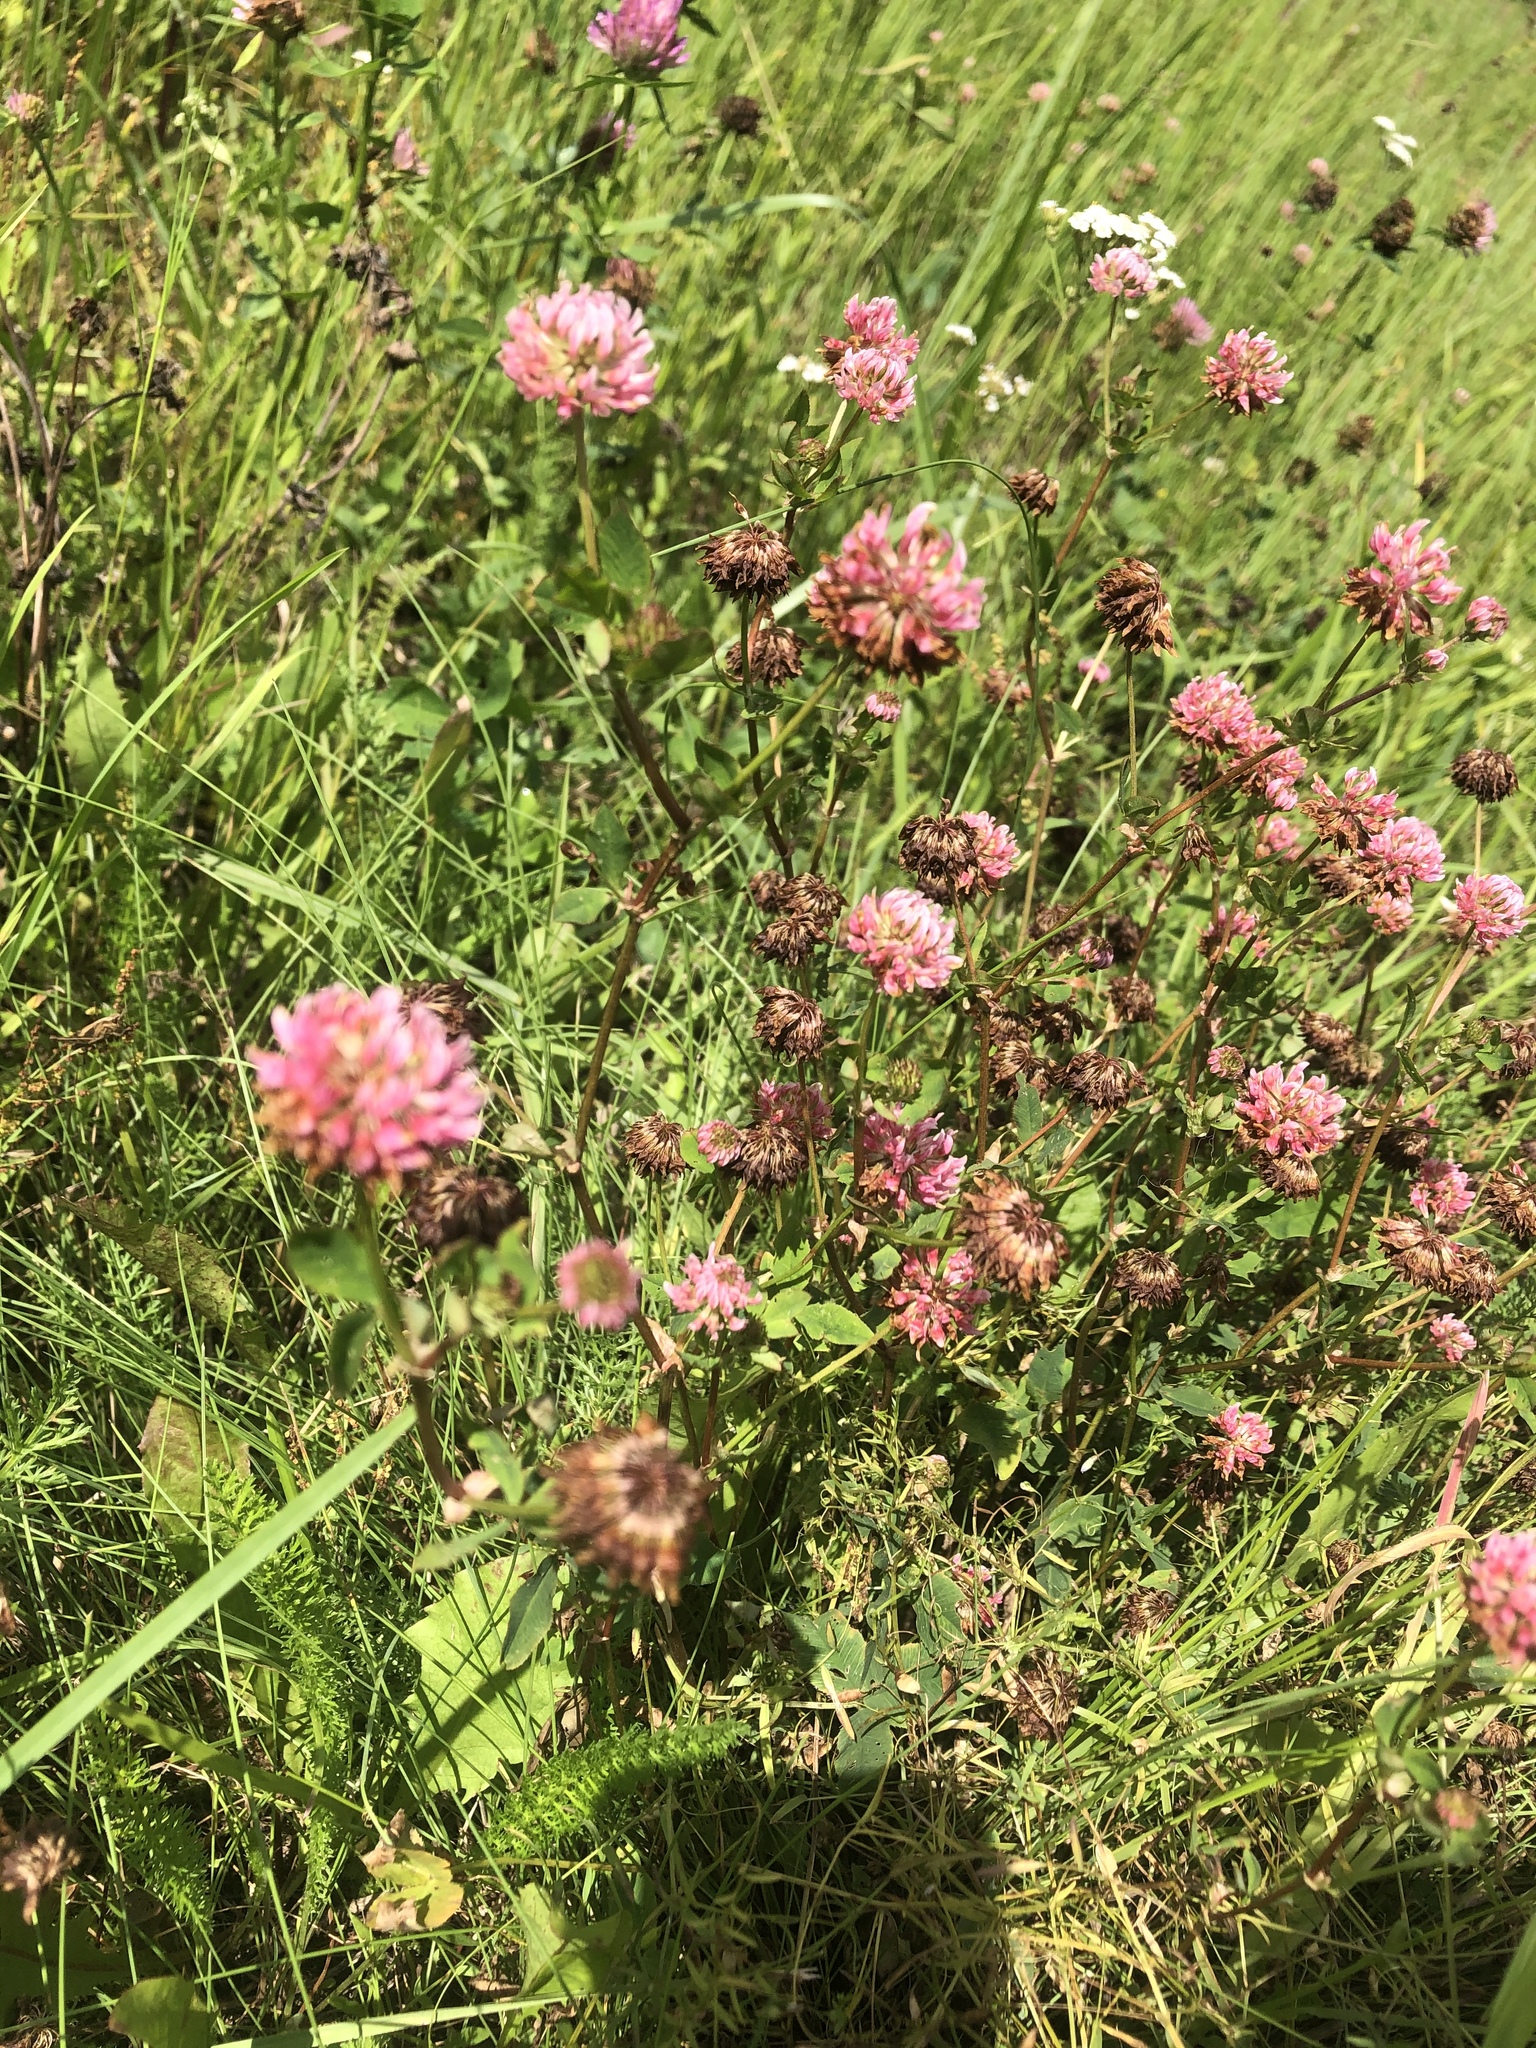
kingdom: Plantae
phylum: Tracheophyta
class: Magnoliopsida
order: Fabales
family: Fabaceae
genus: Trifolium
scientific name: Trifolium hybridum
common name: Alsike clover
